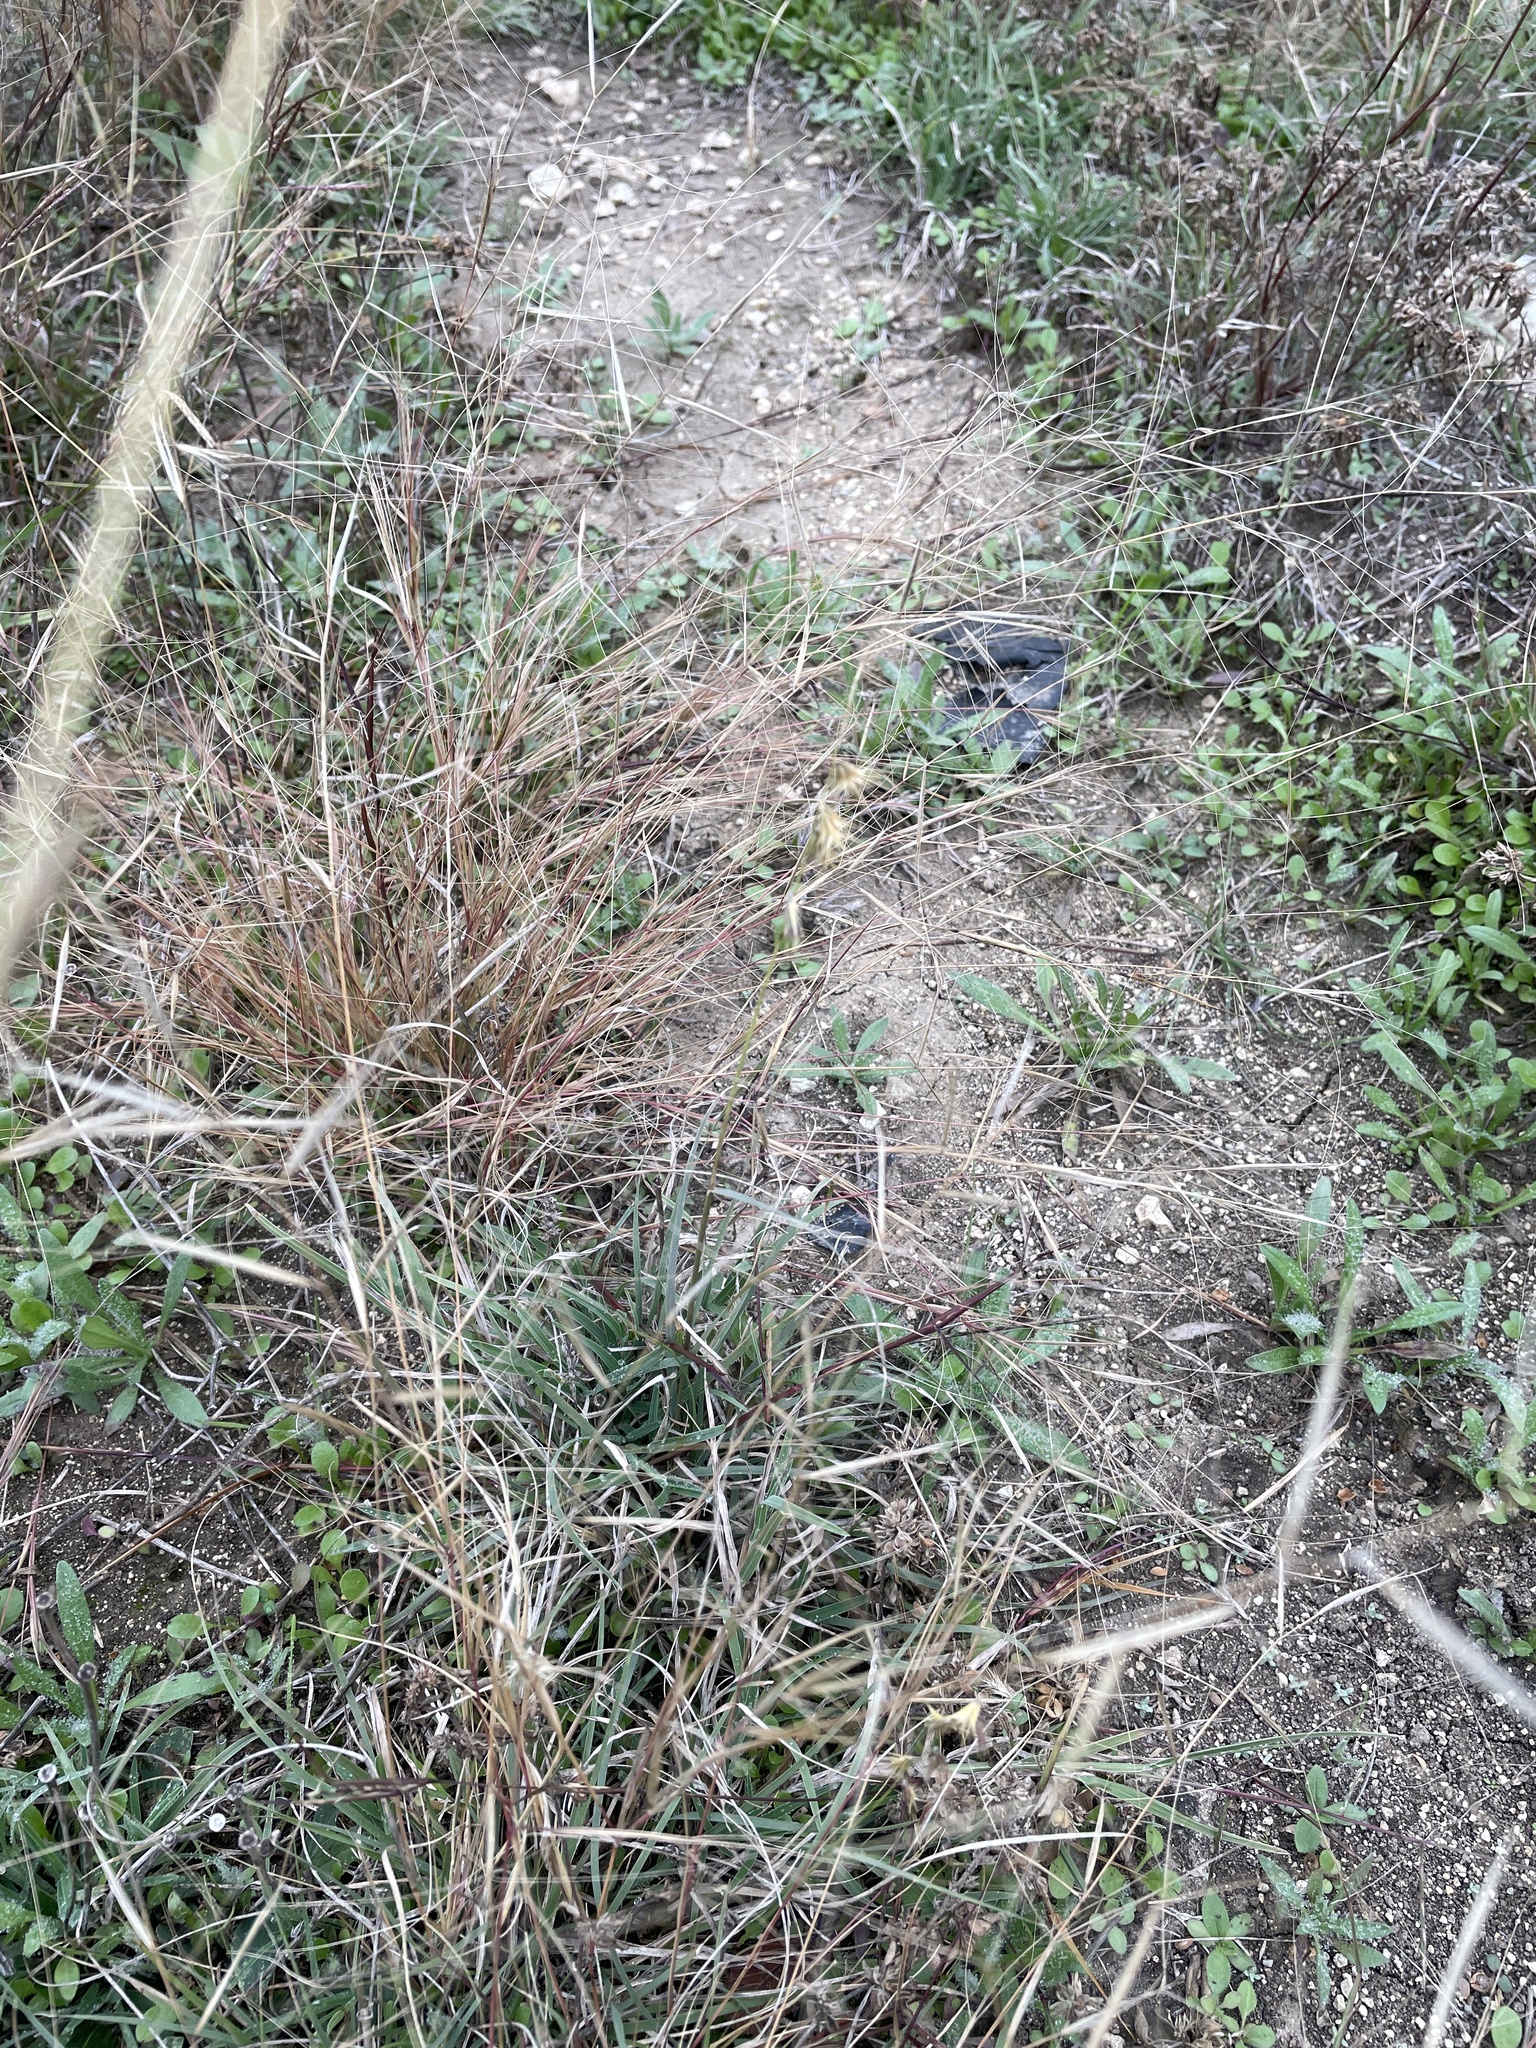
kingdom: Plantae
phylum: Tracheophyta
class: Liliopsida
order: Poales
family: Poaceae
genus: Bouteloua
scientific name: Bouteloua rigidiseta
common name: Texas grama
